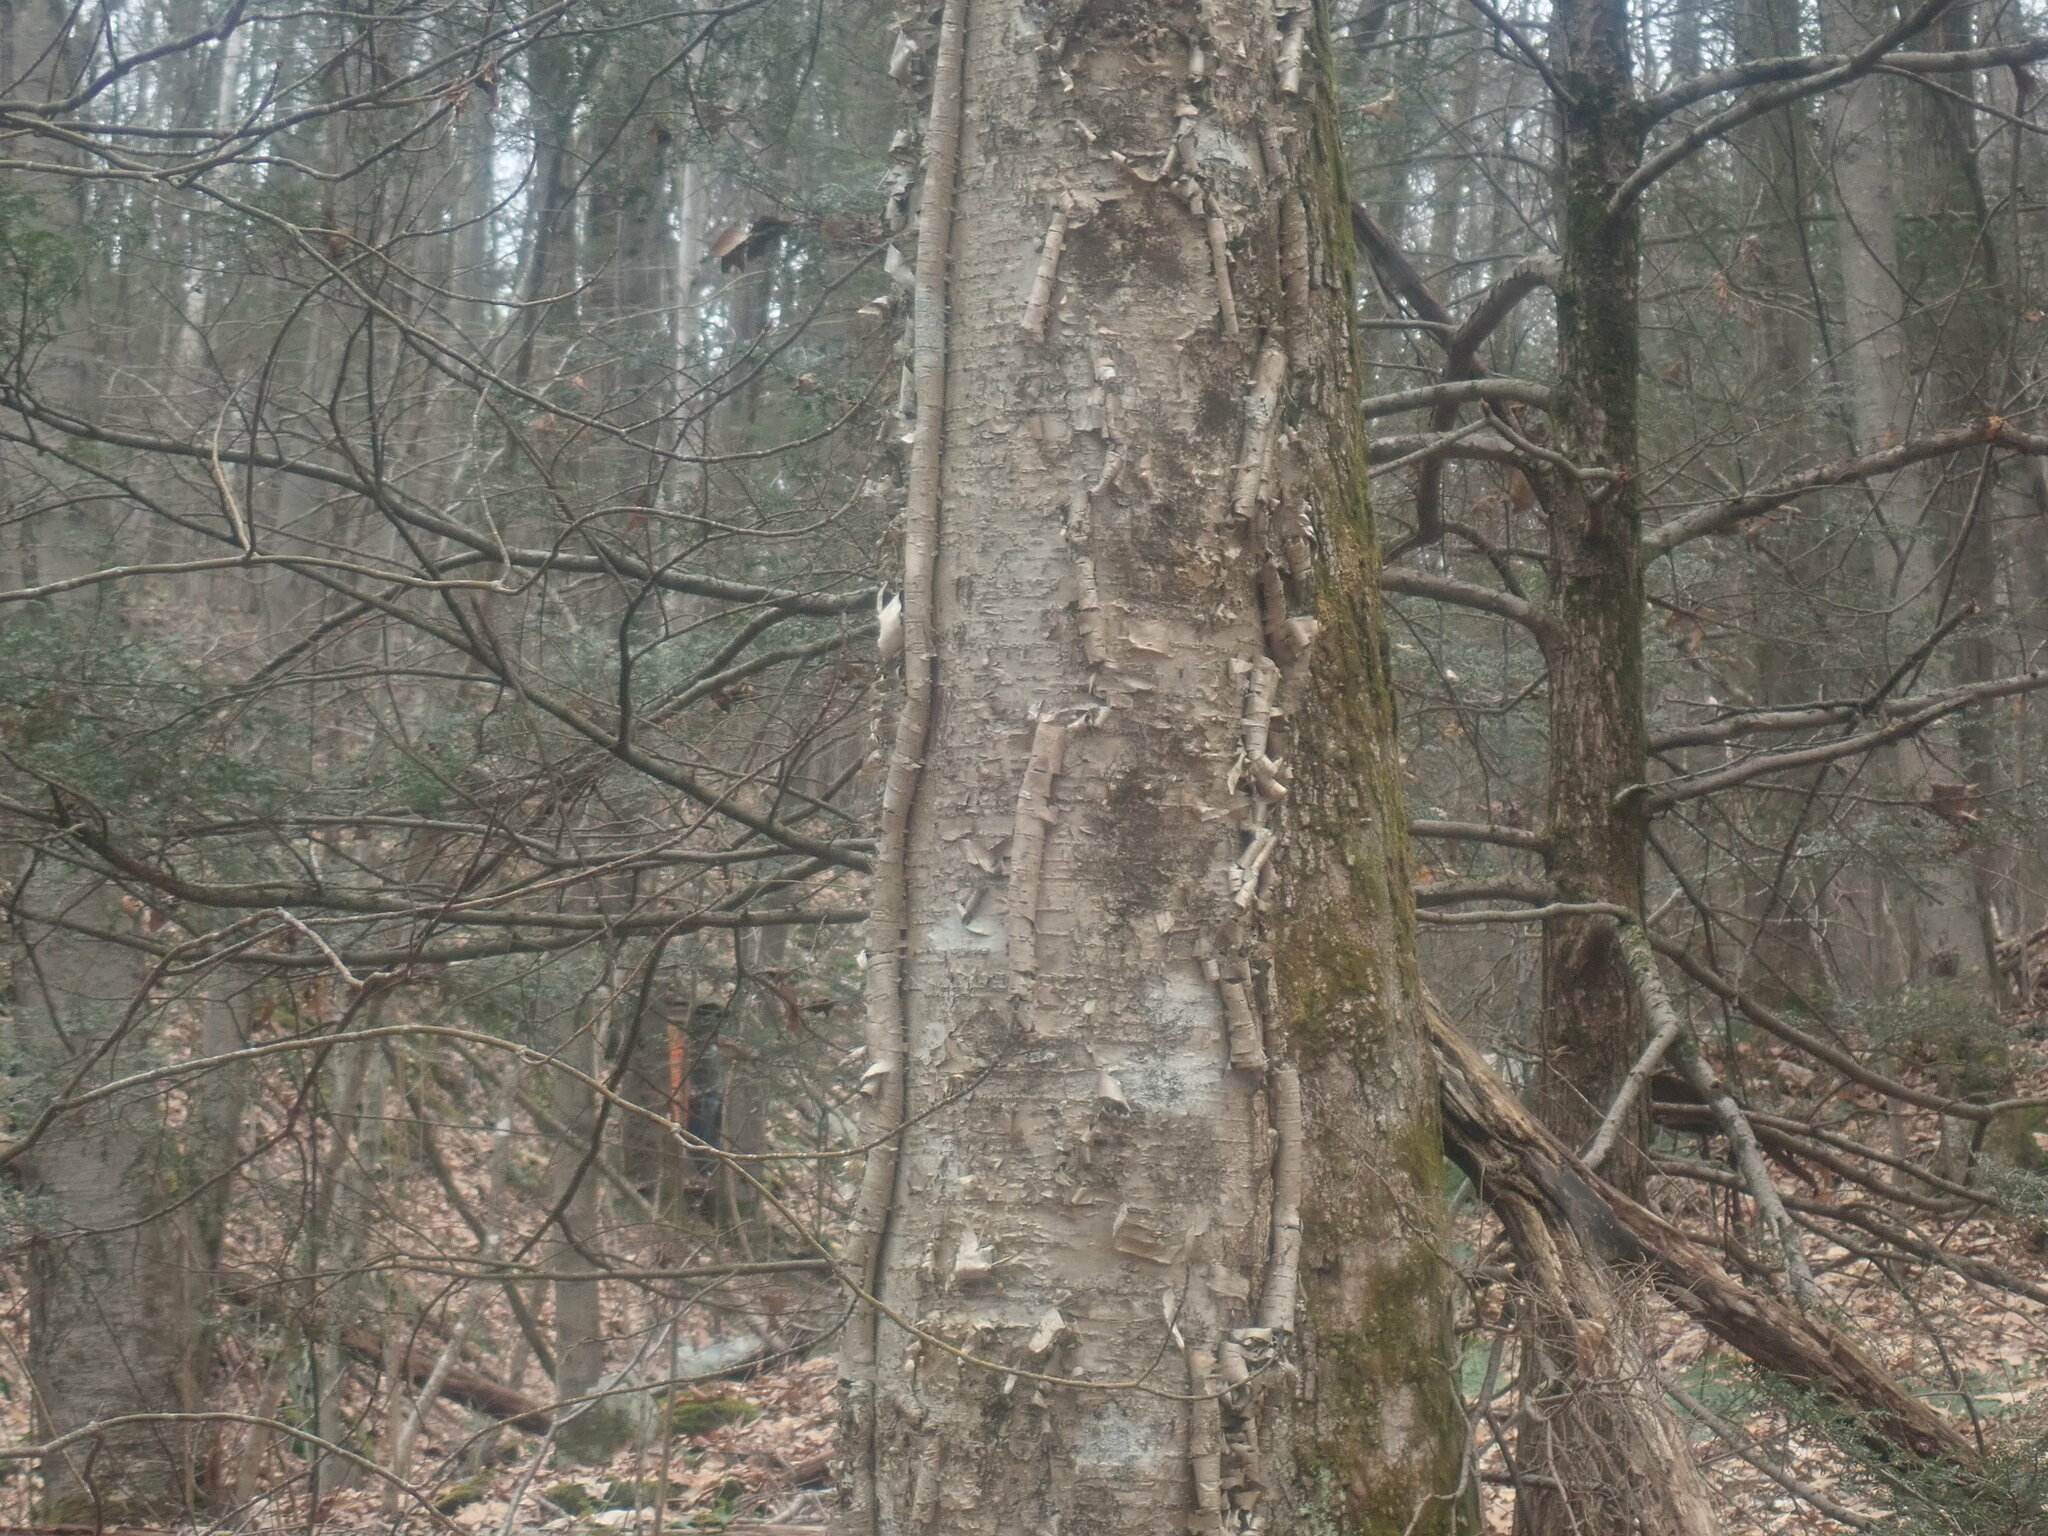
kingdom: Plantae
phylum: Tracheophyta
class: Magnoliopsida
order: Fagales
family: Betulaceae
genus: Betula
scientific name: Betula alleghaniensis
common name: Yellow birch
